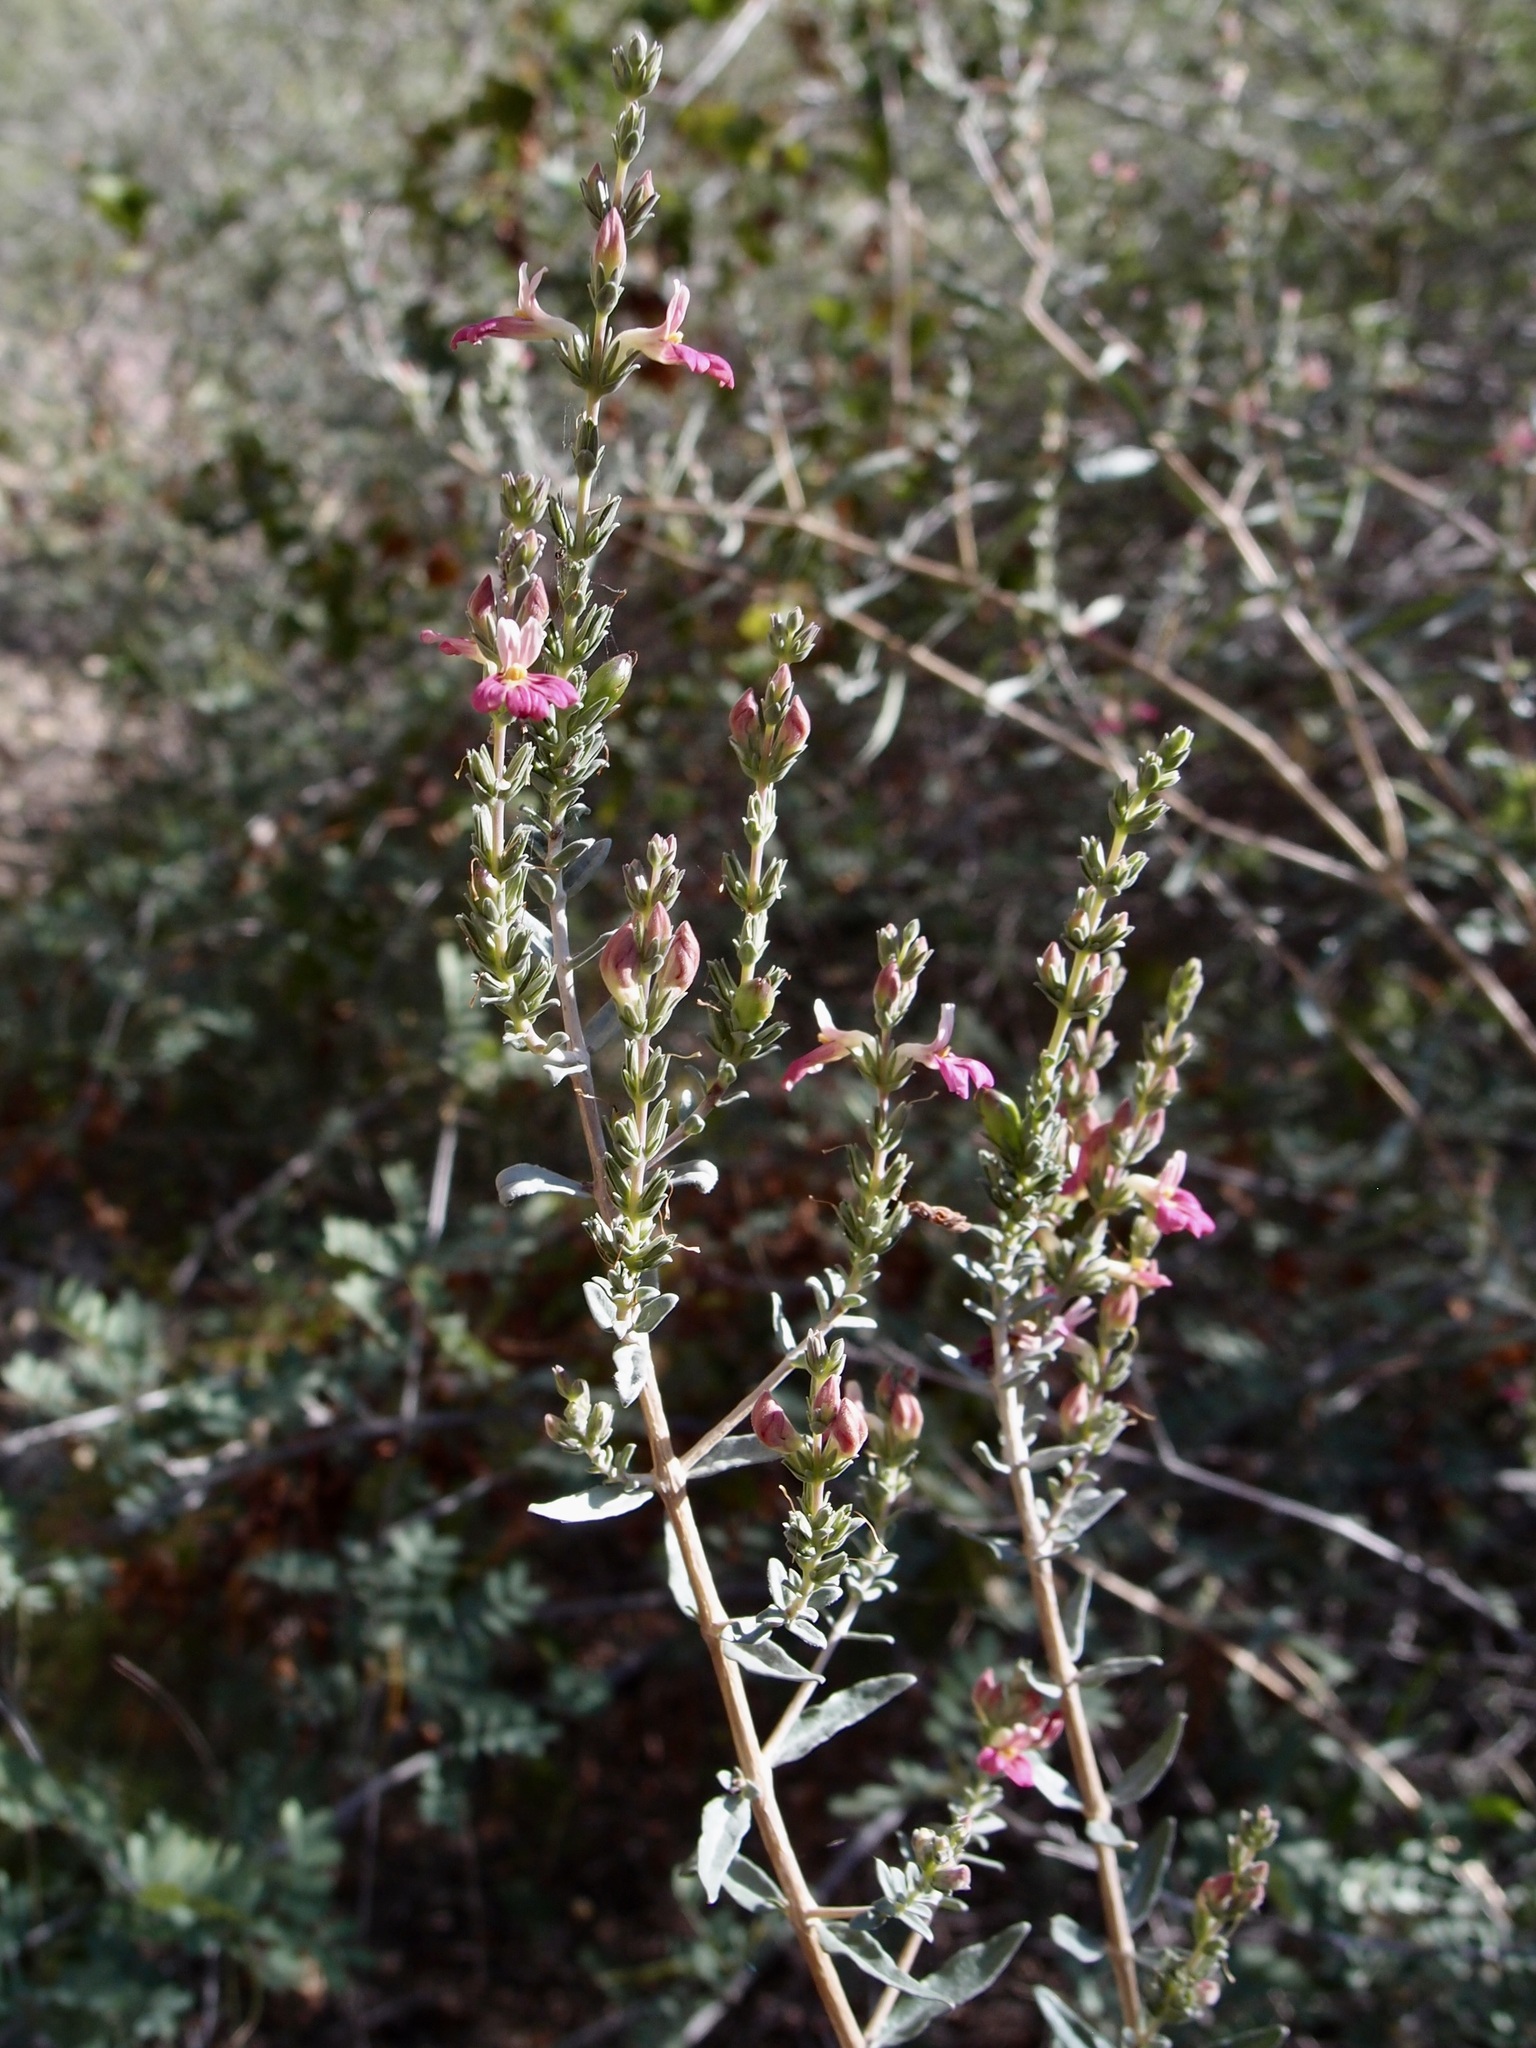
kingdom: Plantae
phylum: Tracheophyta
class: Magnoliopsida
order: Lamiales
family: Acanthaceae
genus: Holographis
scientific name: Holographis virgata
